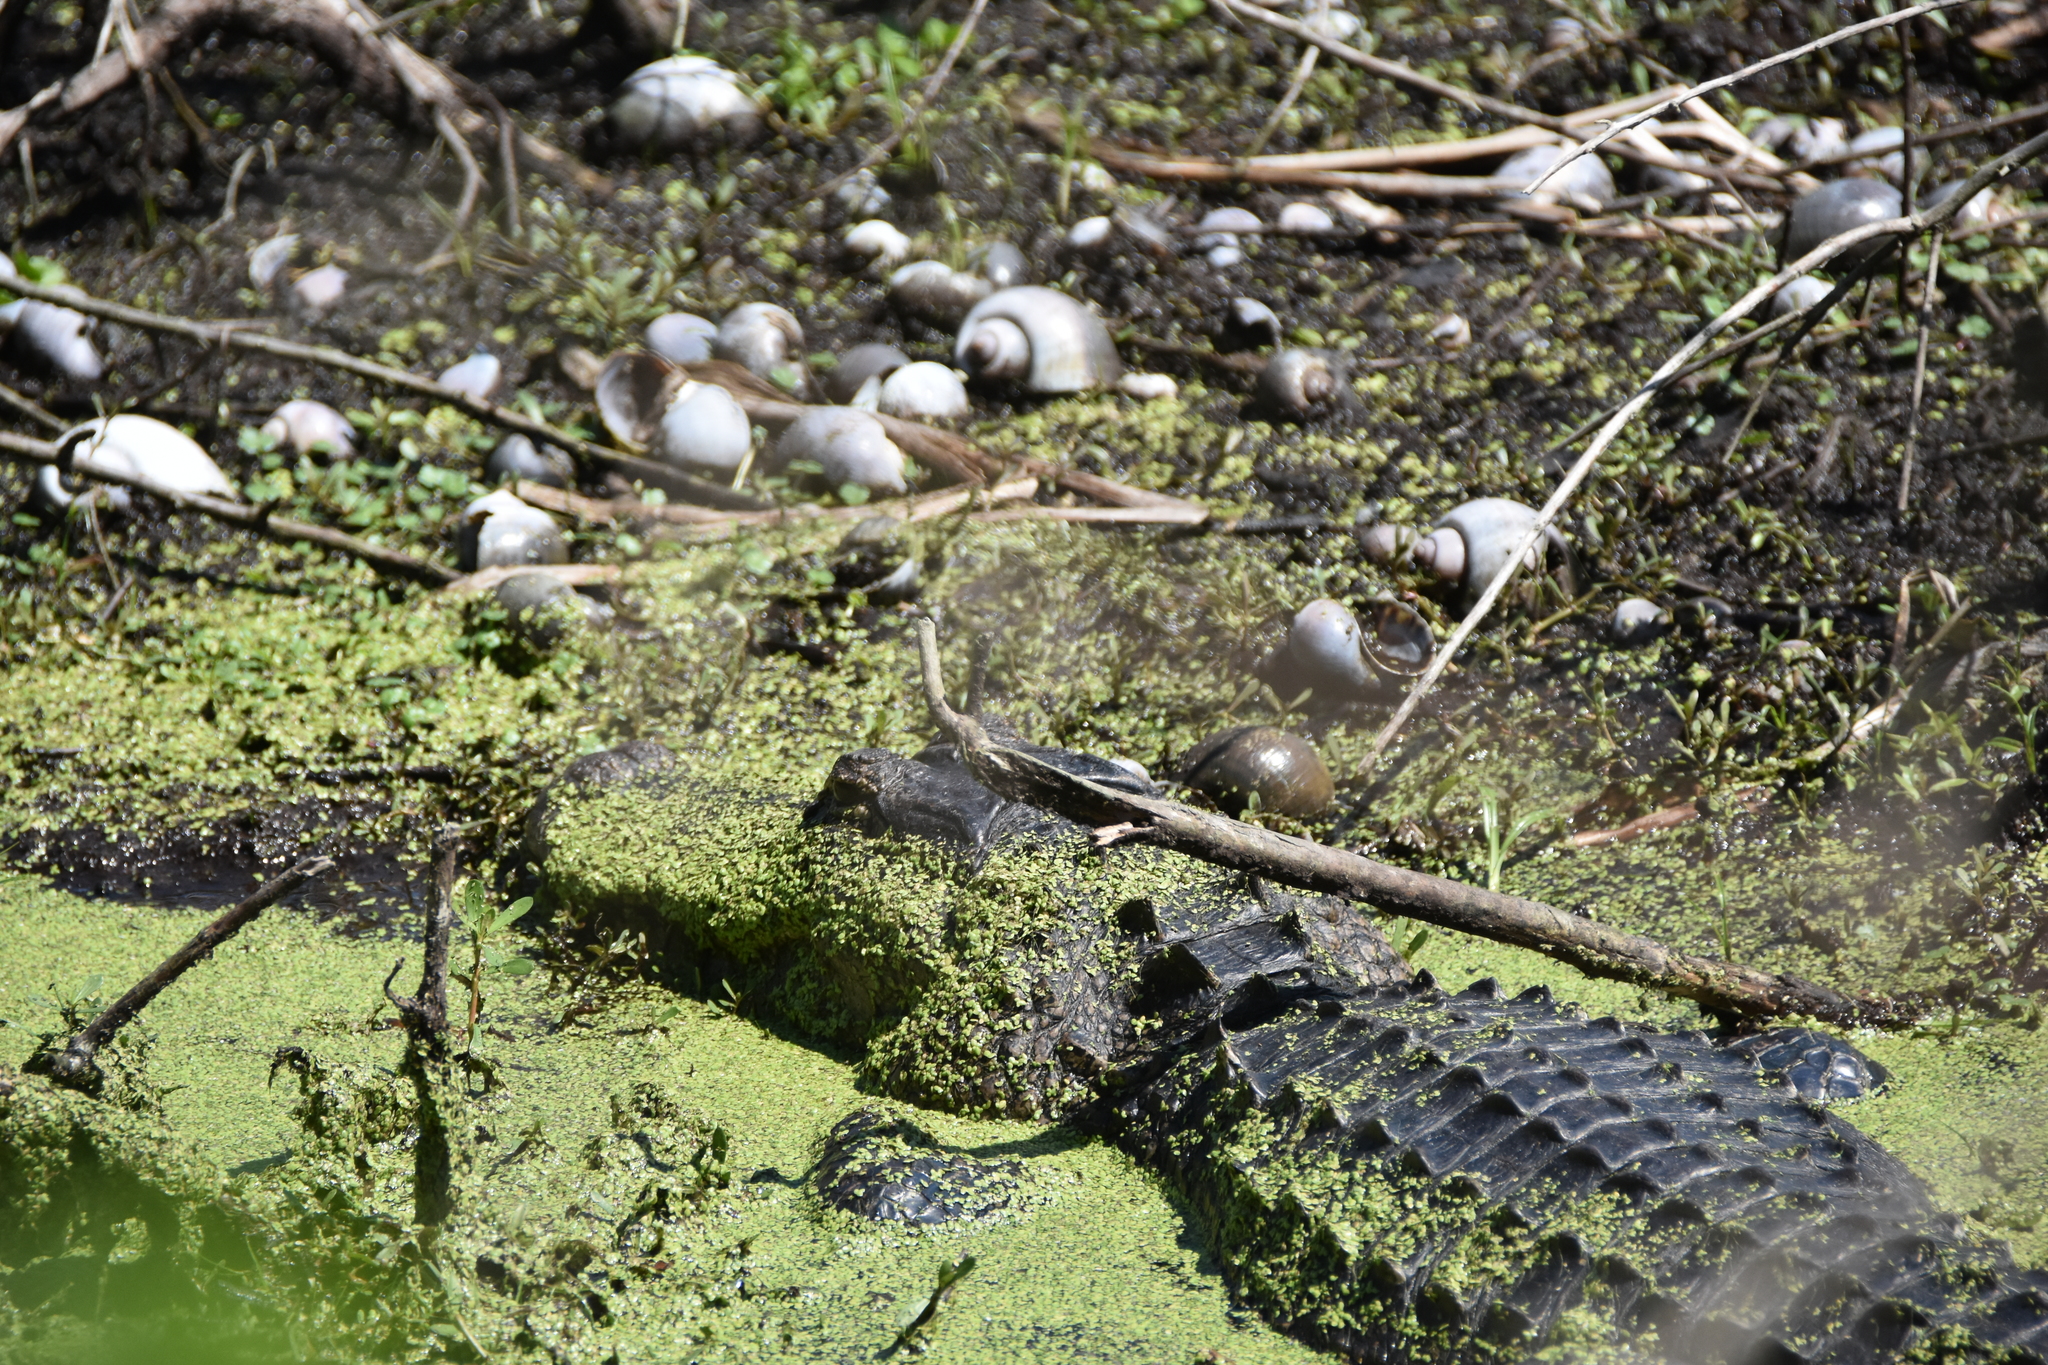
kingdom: Animalia
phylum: Chordata
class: Crocodylia
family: Alligatoridae
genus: Alligator
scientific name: Alligator mississippiensis
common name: American alligator
